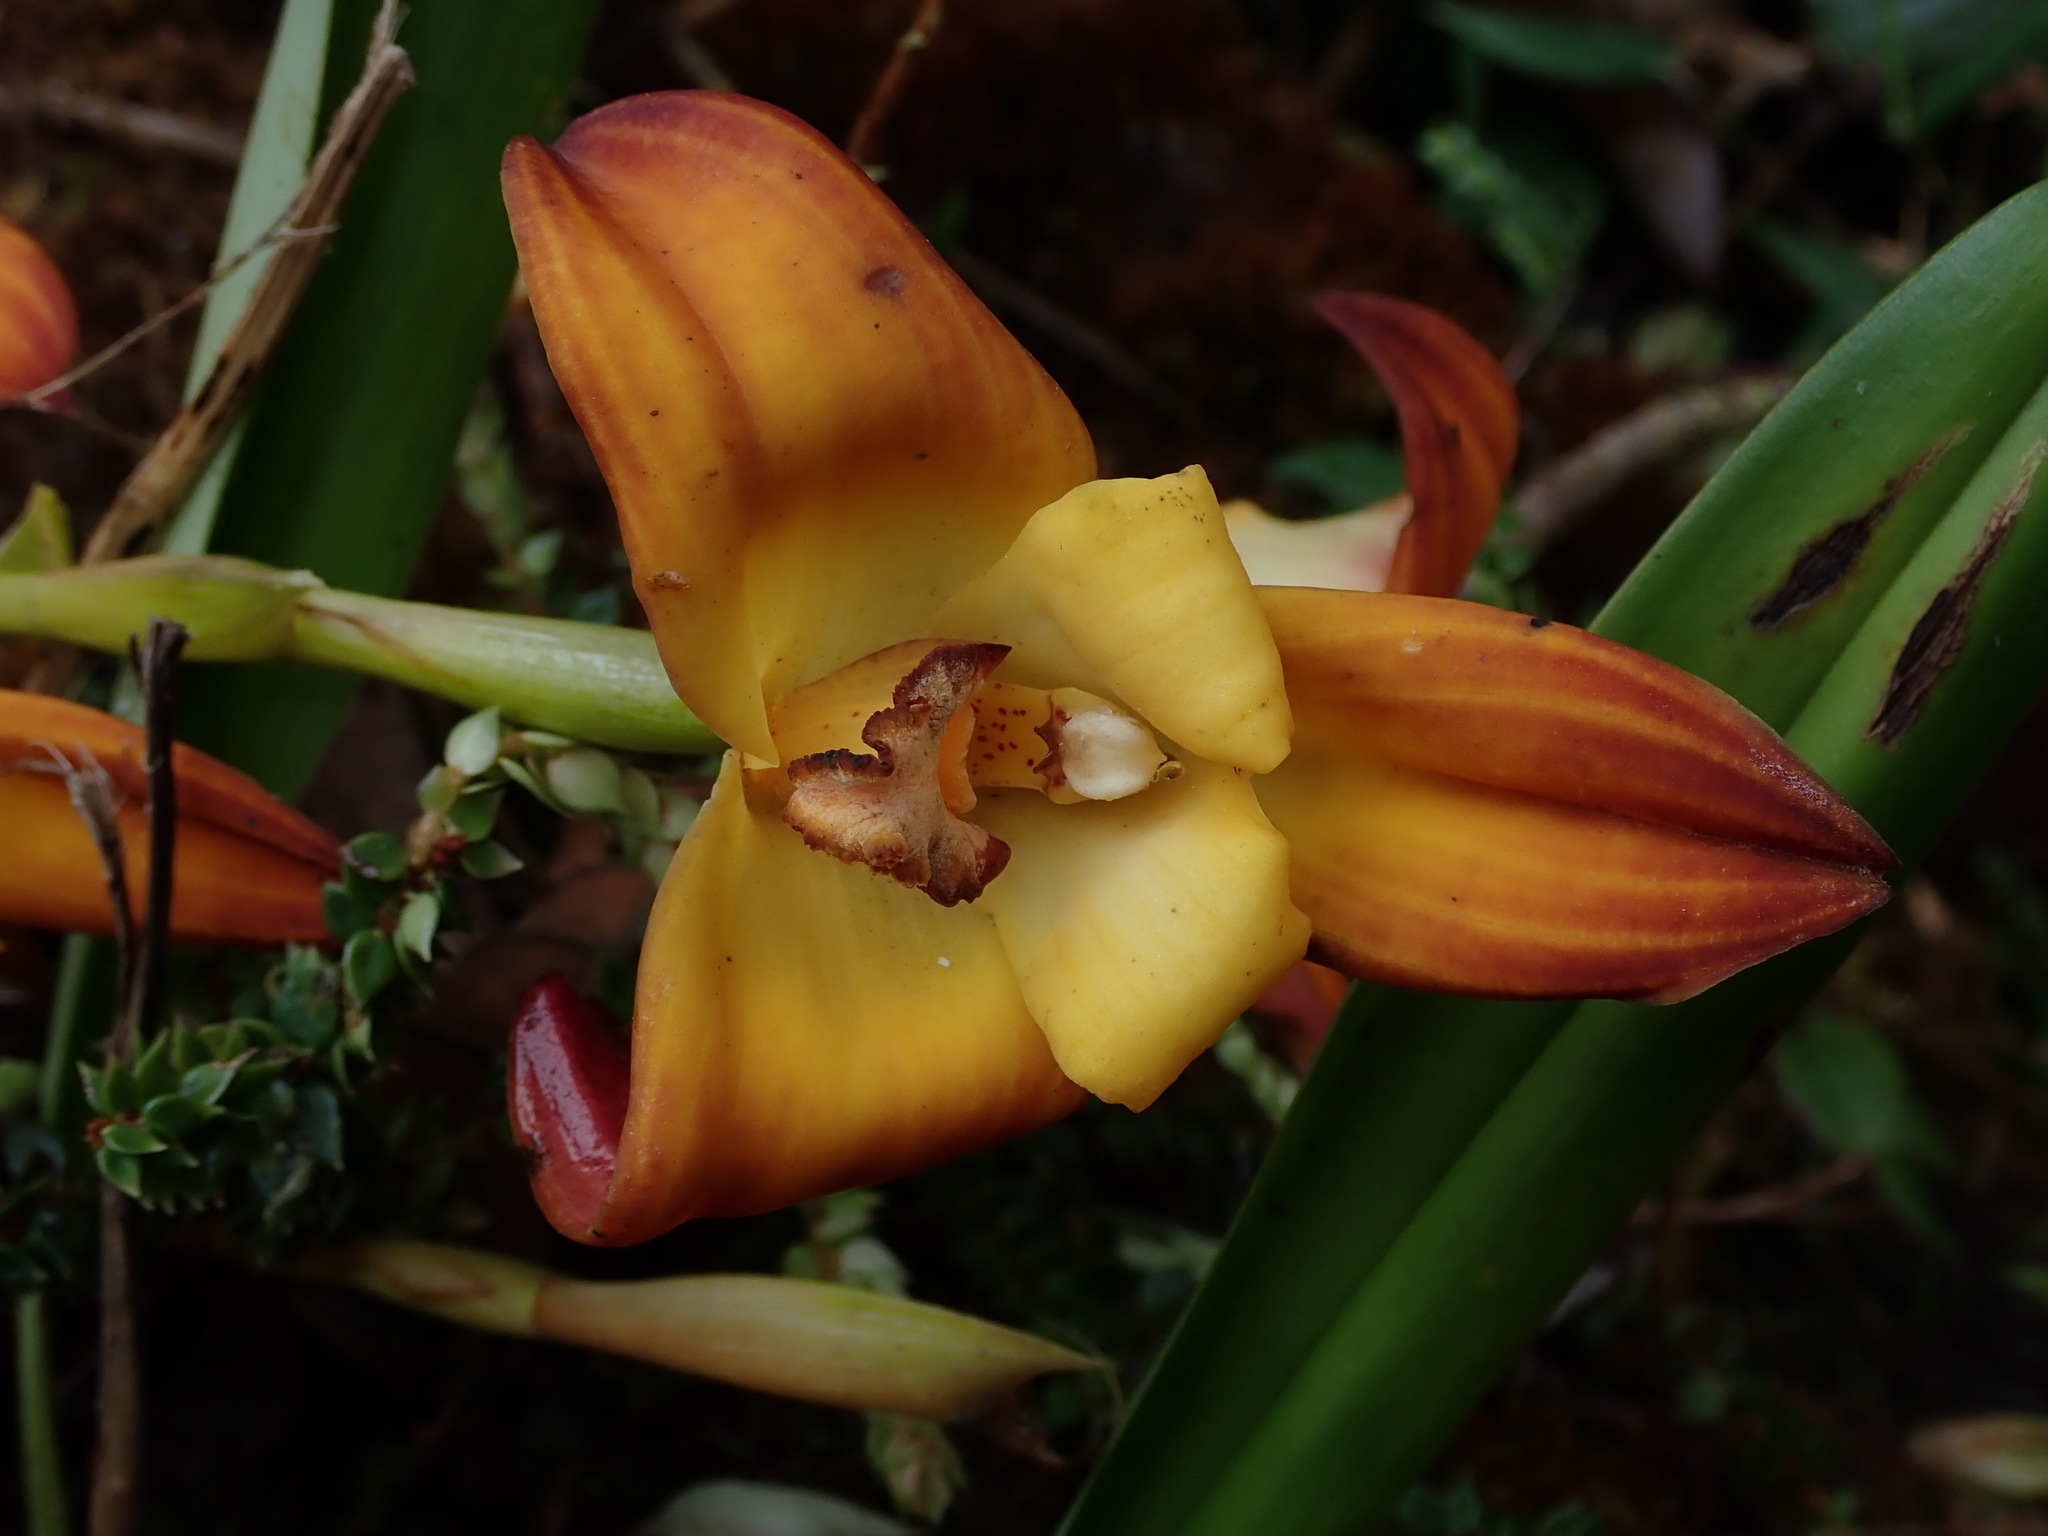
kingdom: Plantae
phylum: Tracheophyta
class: Liliopsida
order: Asparagales
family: Orchidaceae
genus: Maxillaria
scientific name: Maxillaria molitor
